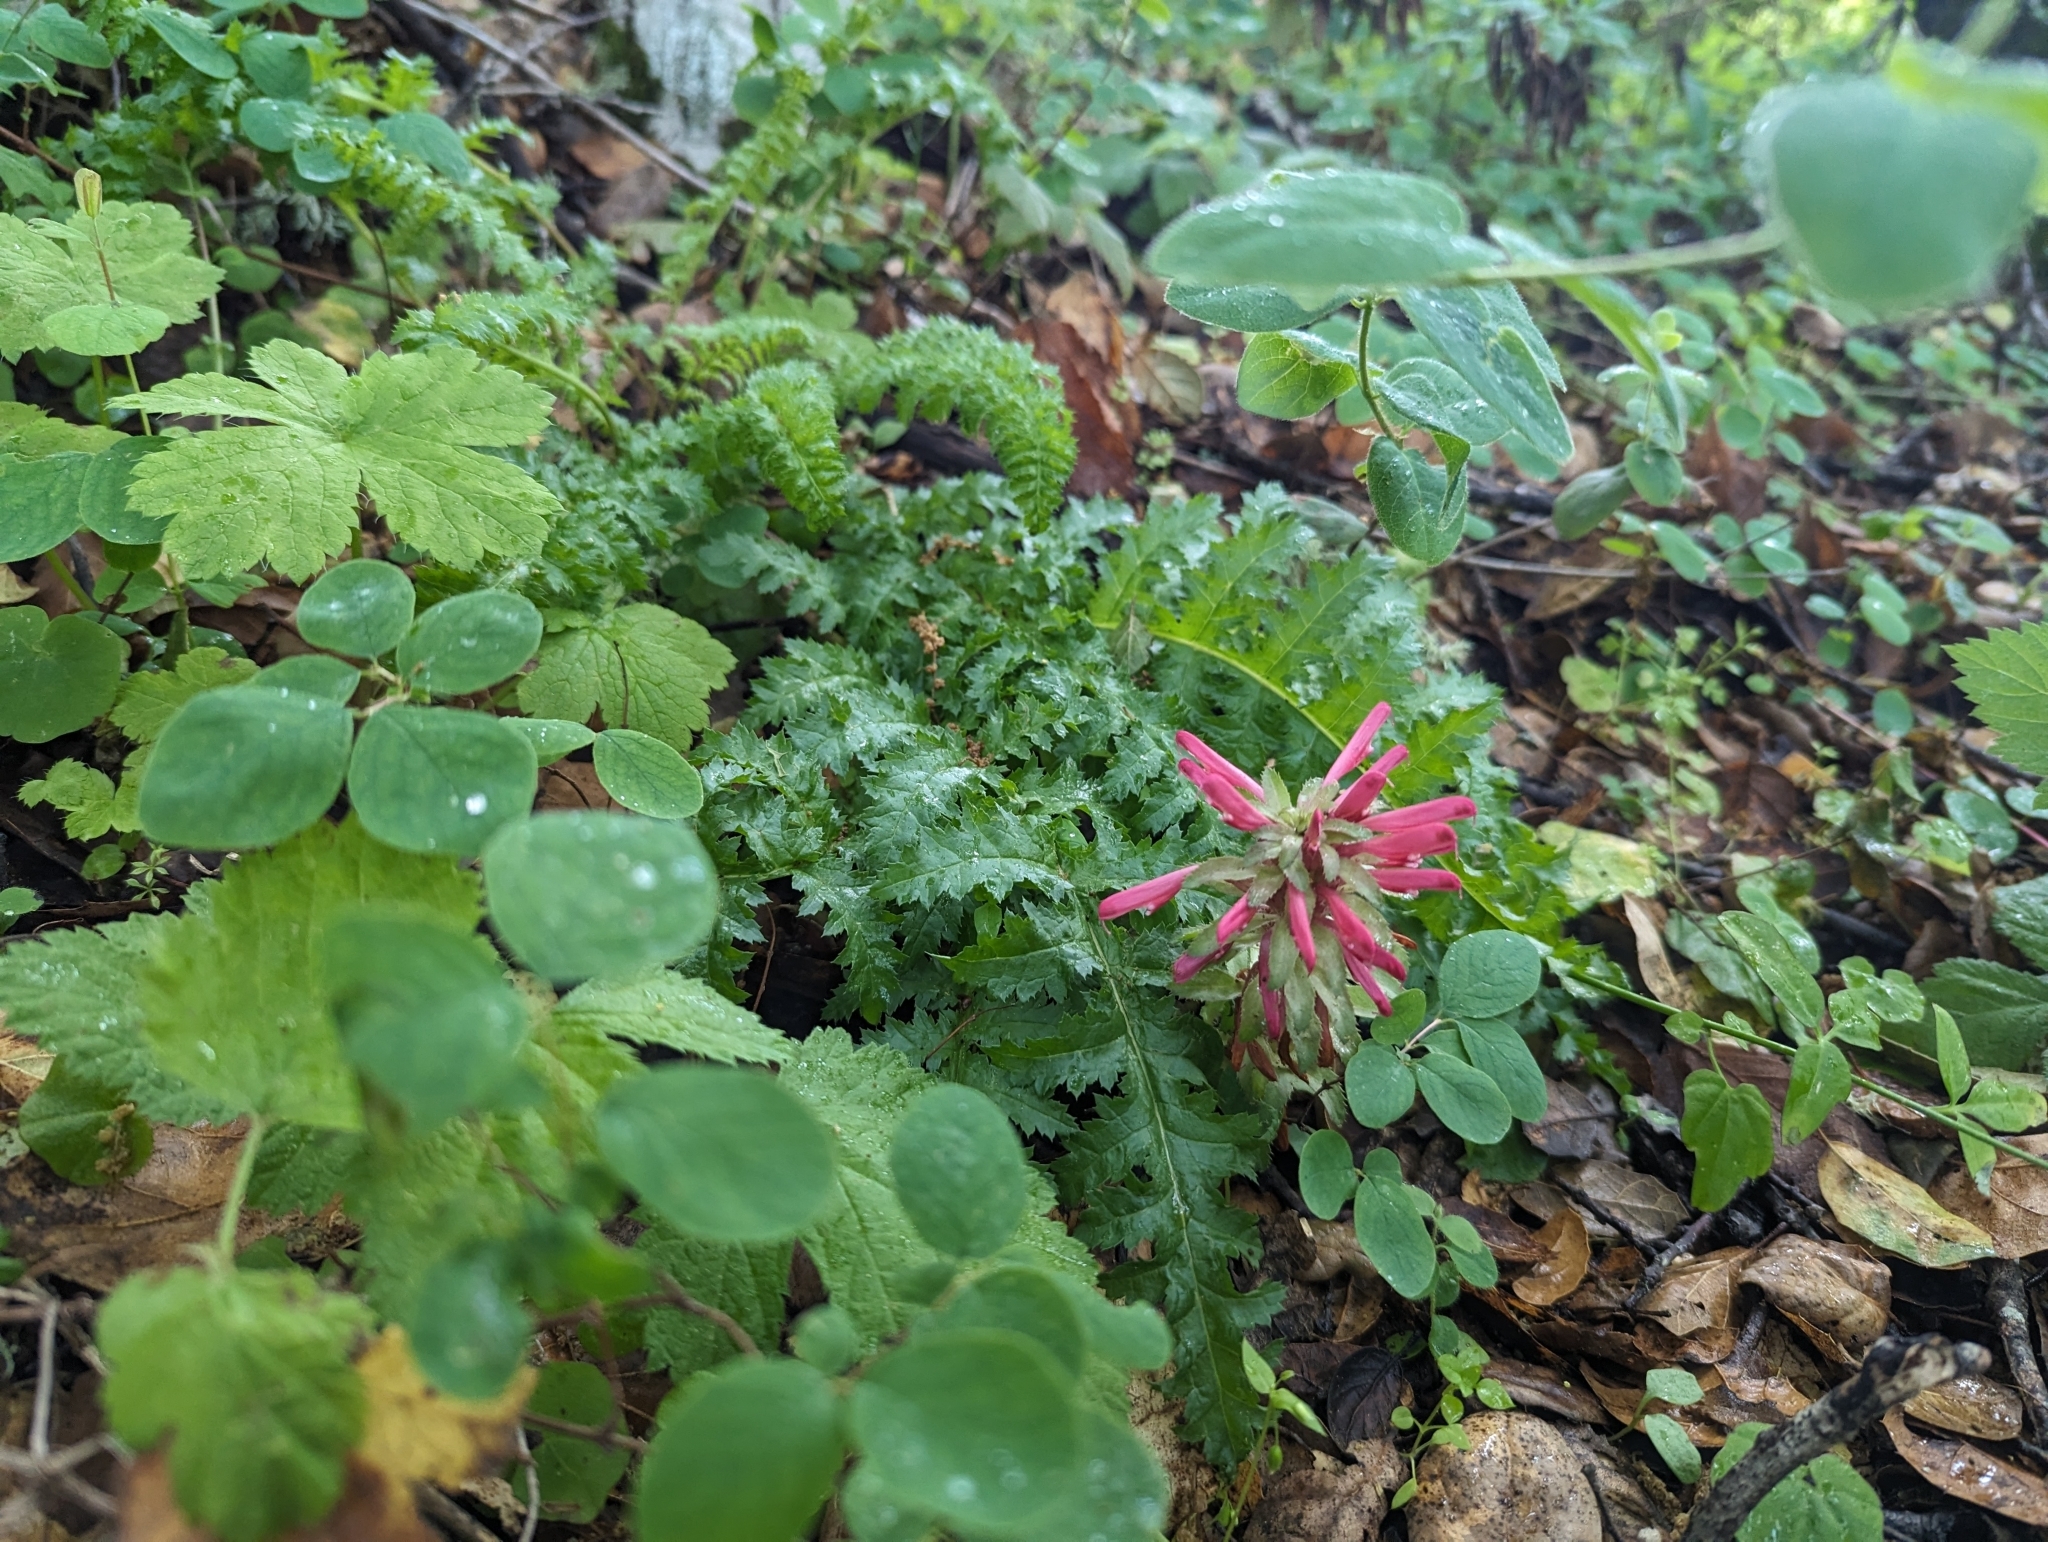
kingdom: Plantae
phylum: Tracheophyta
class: Magnoliopsida
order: Lamiales
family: Orobanchaceae
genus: Pedicularis
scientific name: Pedicularis densiflora
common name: Indian warrior
